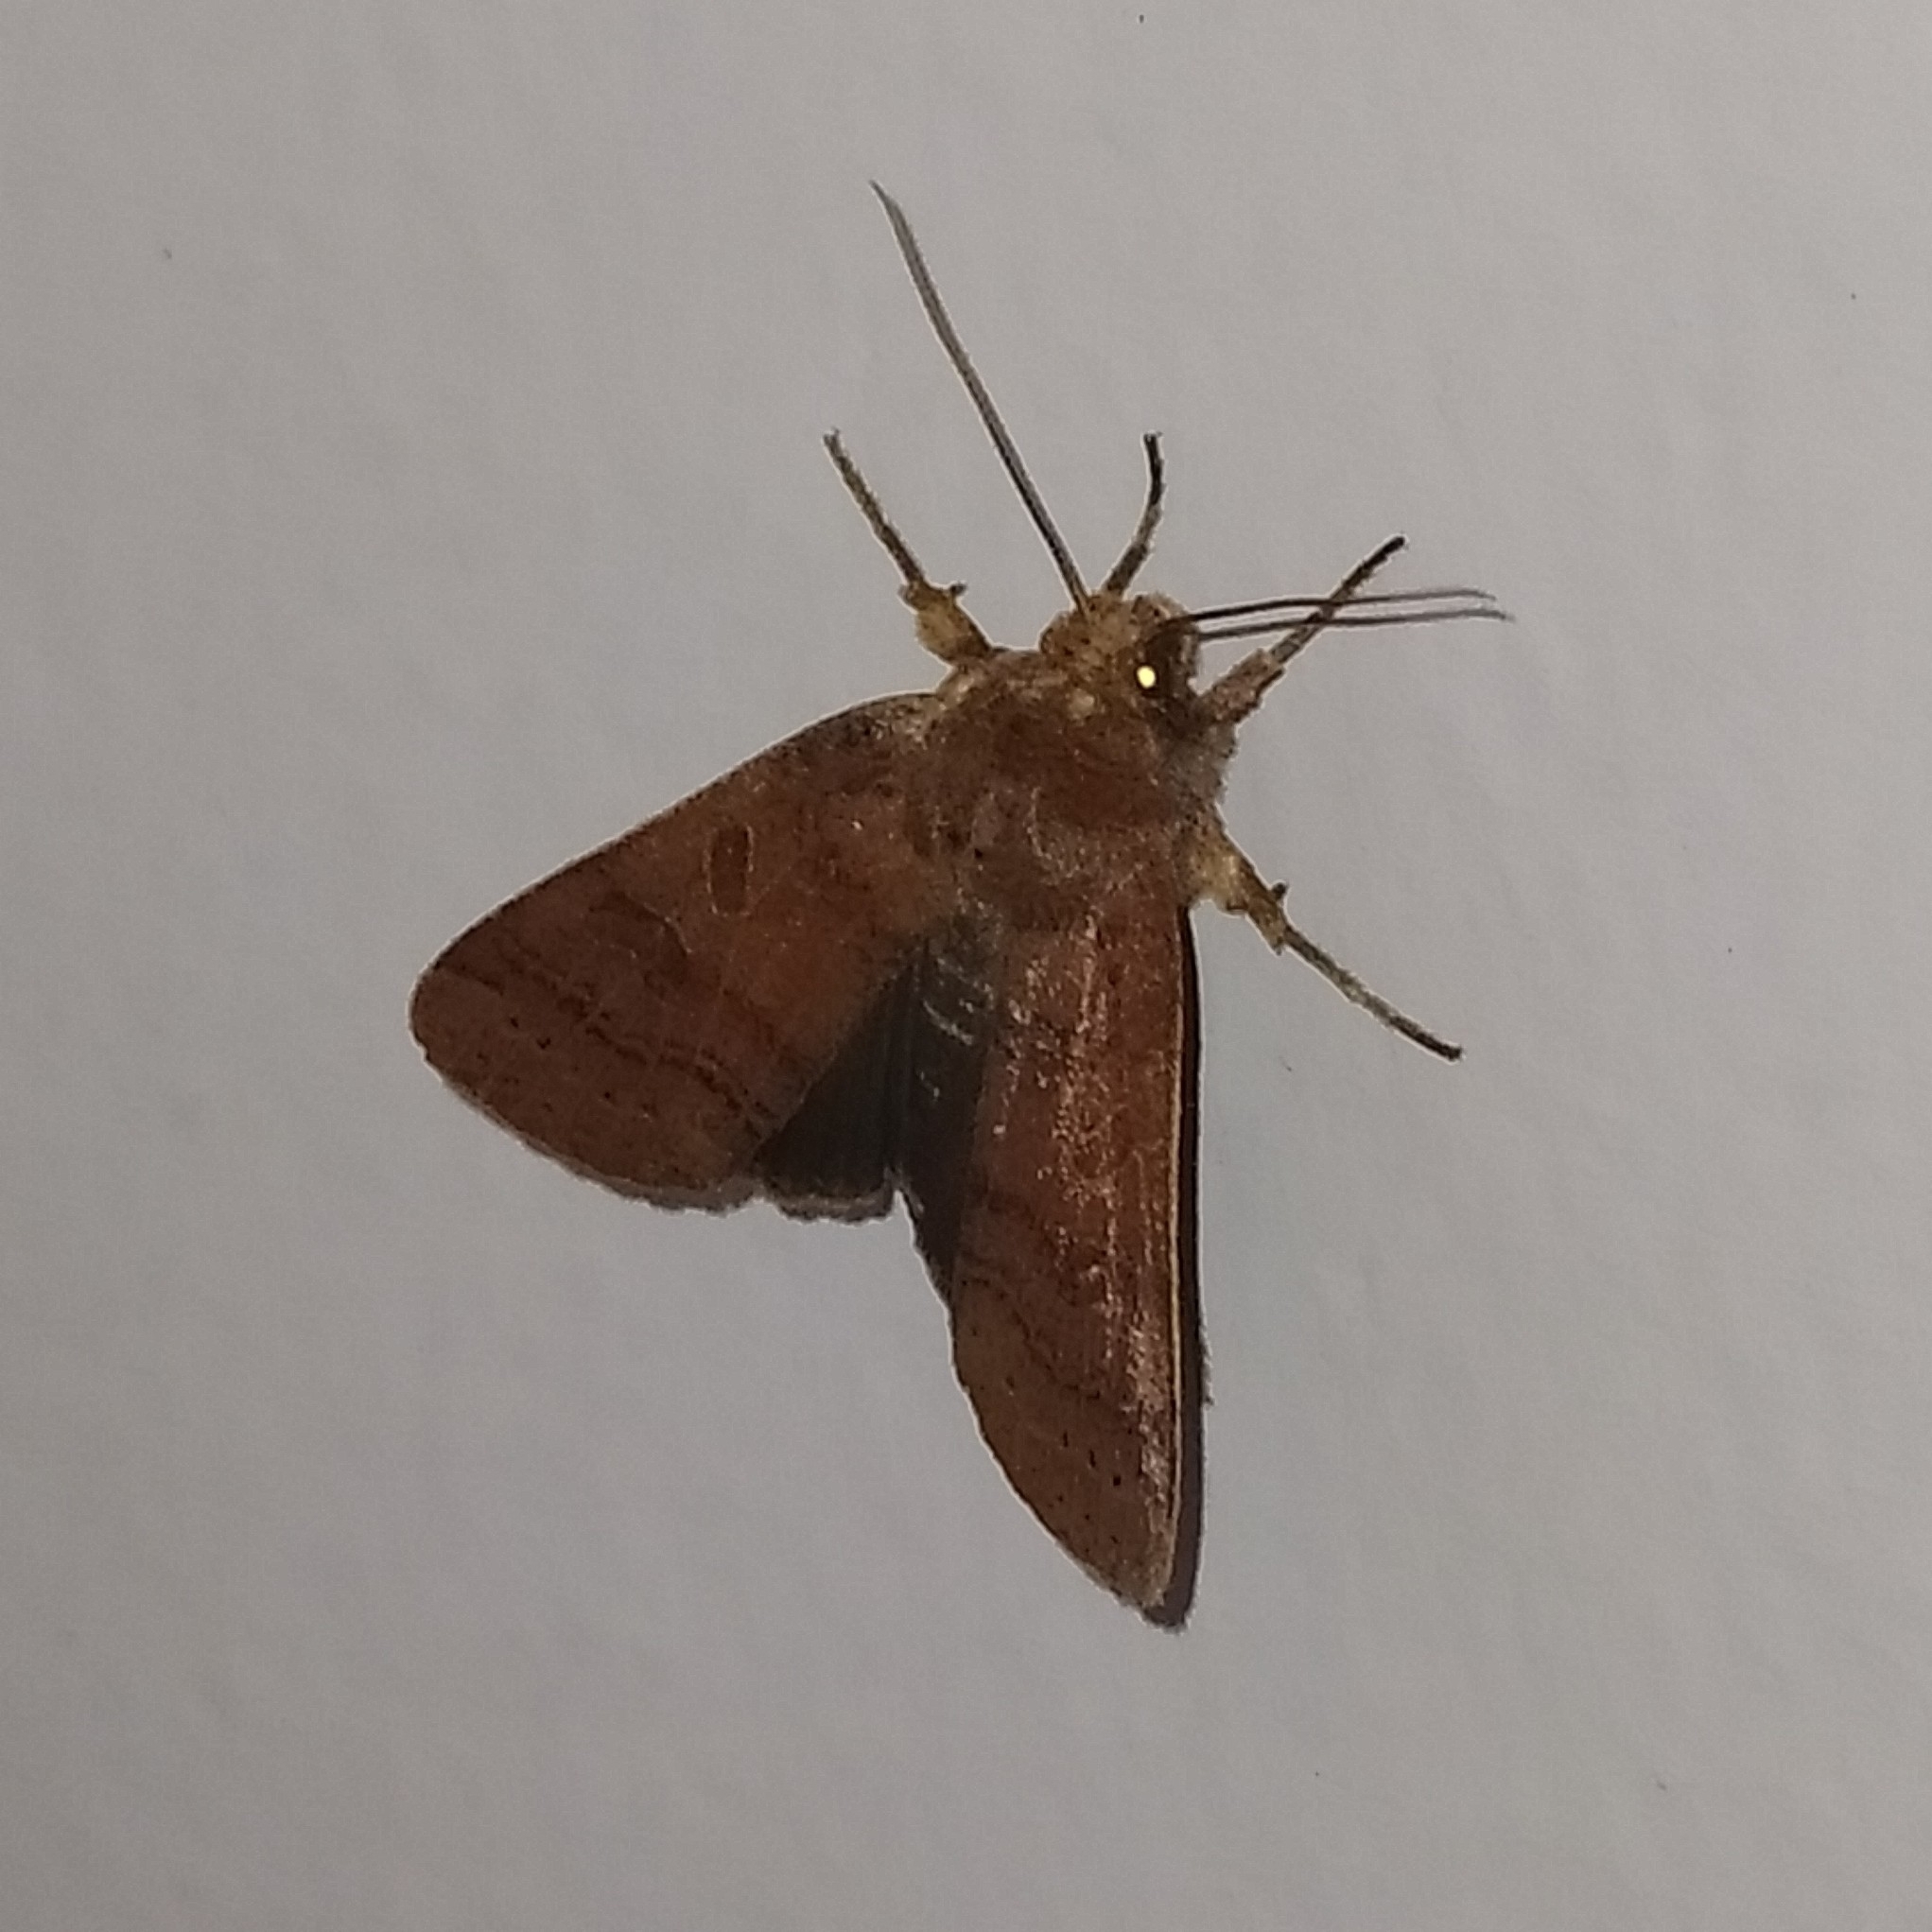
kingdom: Animalia
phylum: Arthropoda
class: Insecta
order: Lepidoptera
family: Noctuidae
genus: Agrochola
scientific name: Agrochola nitida
